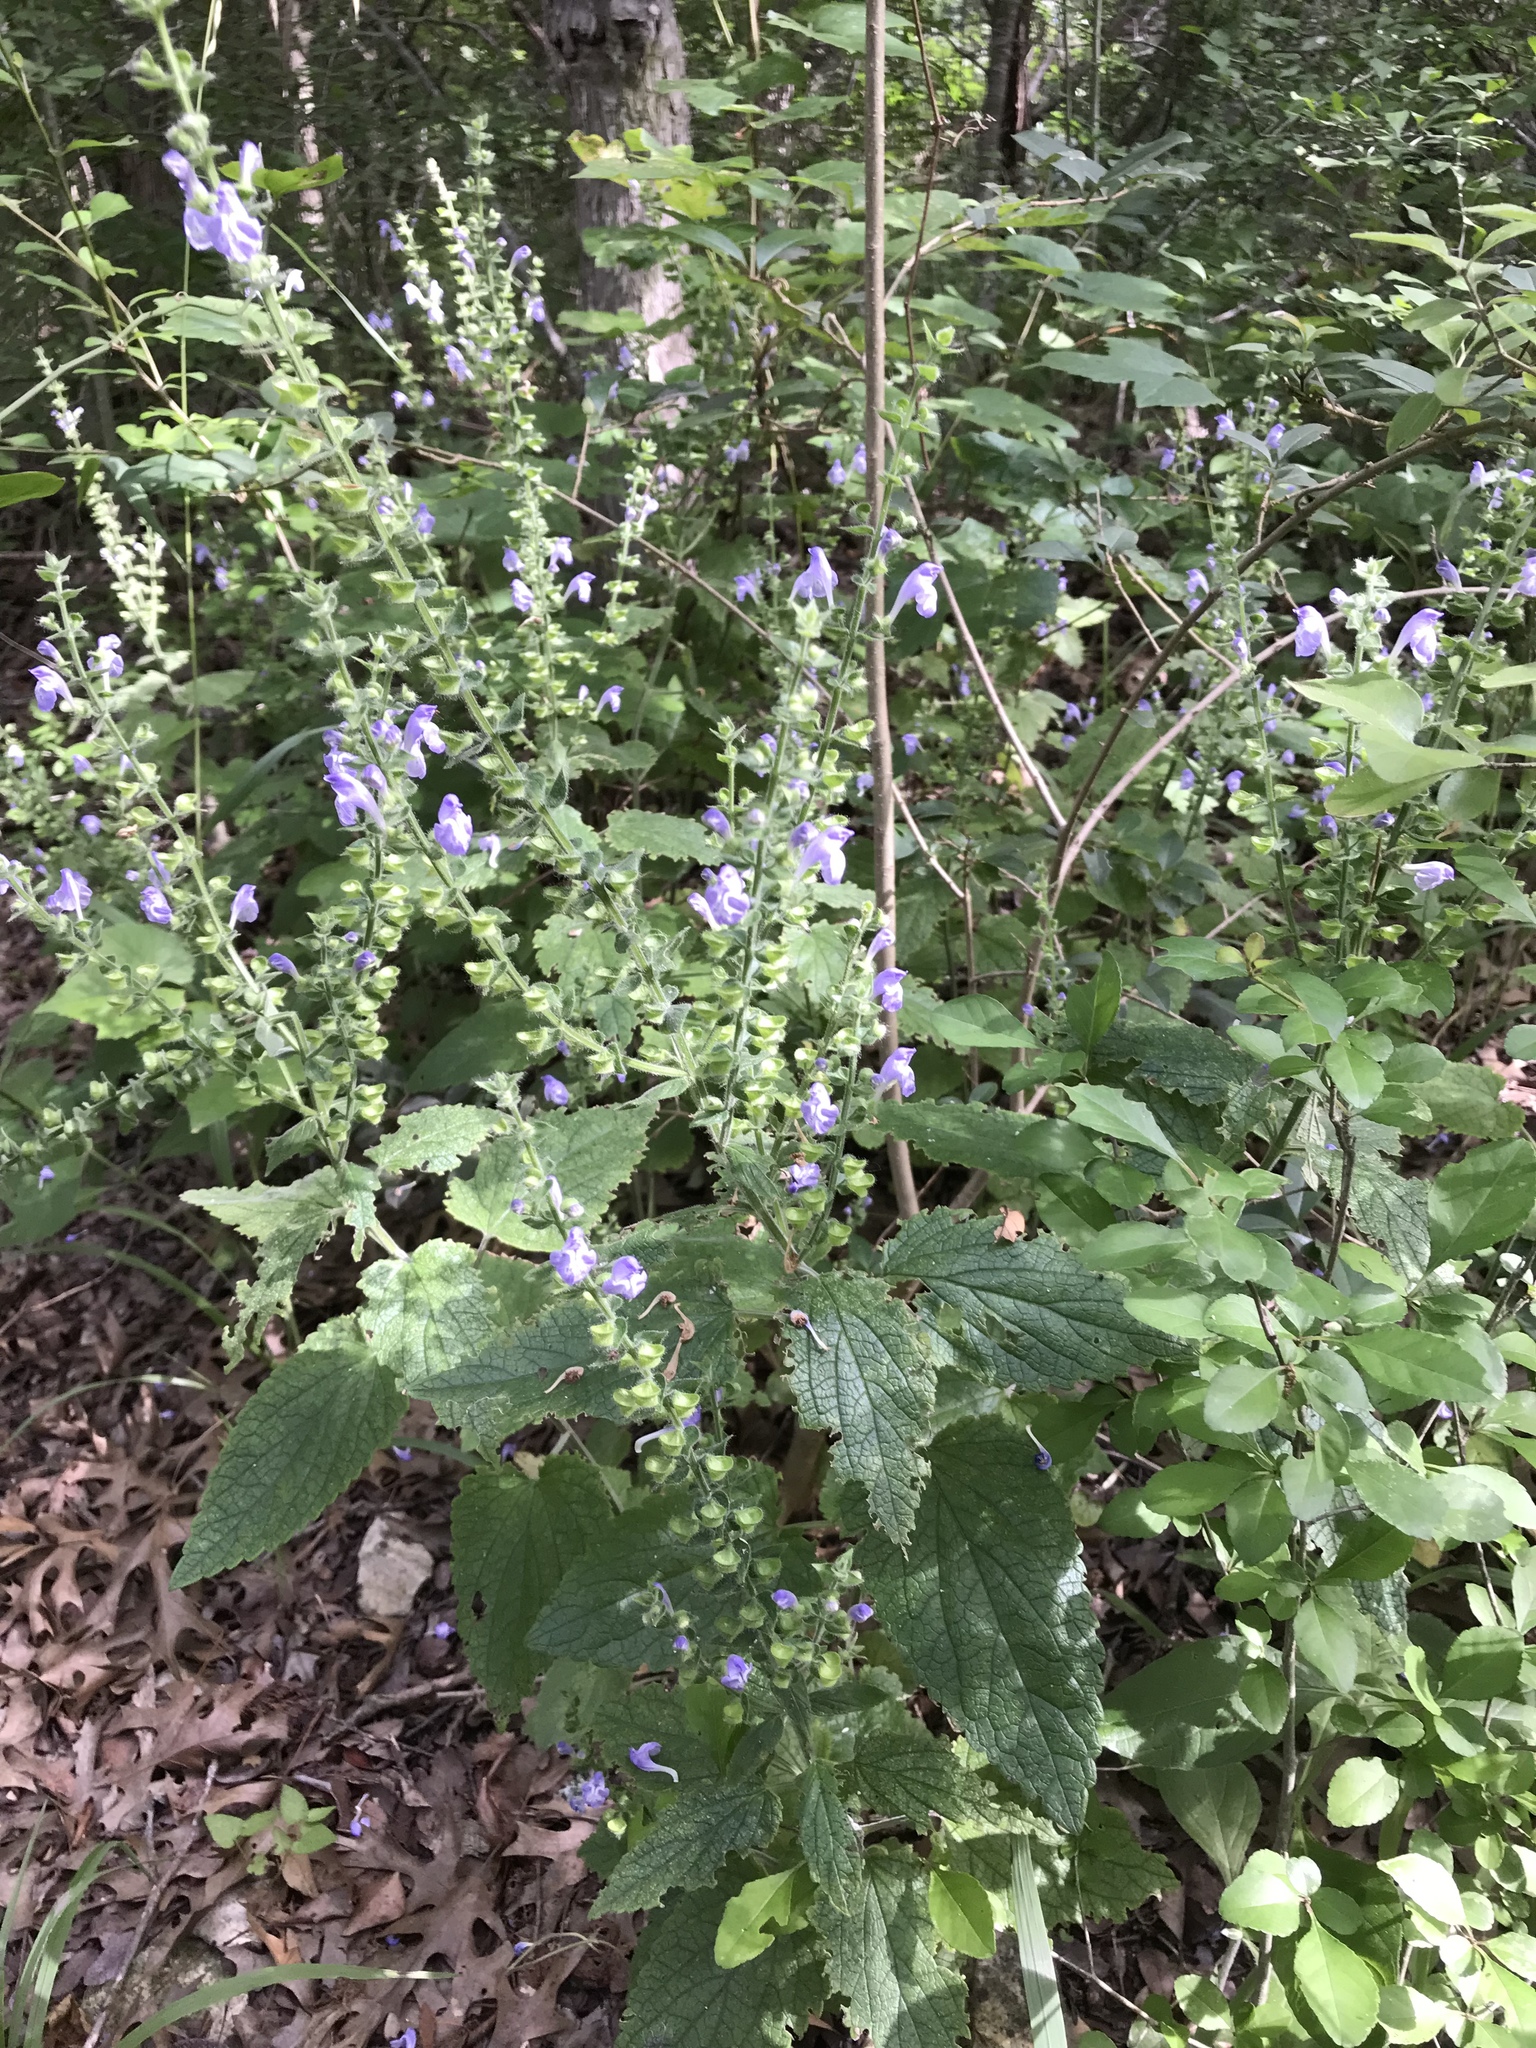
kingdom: Plantae
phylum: Tracheophyta
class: Magnoliopsida
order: Lamiales
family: Lamiaceae
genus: Scutellaria
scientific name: Scutellaria ovata
